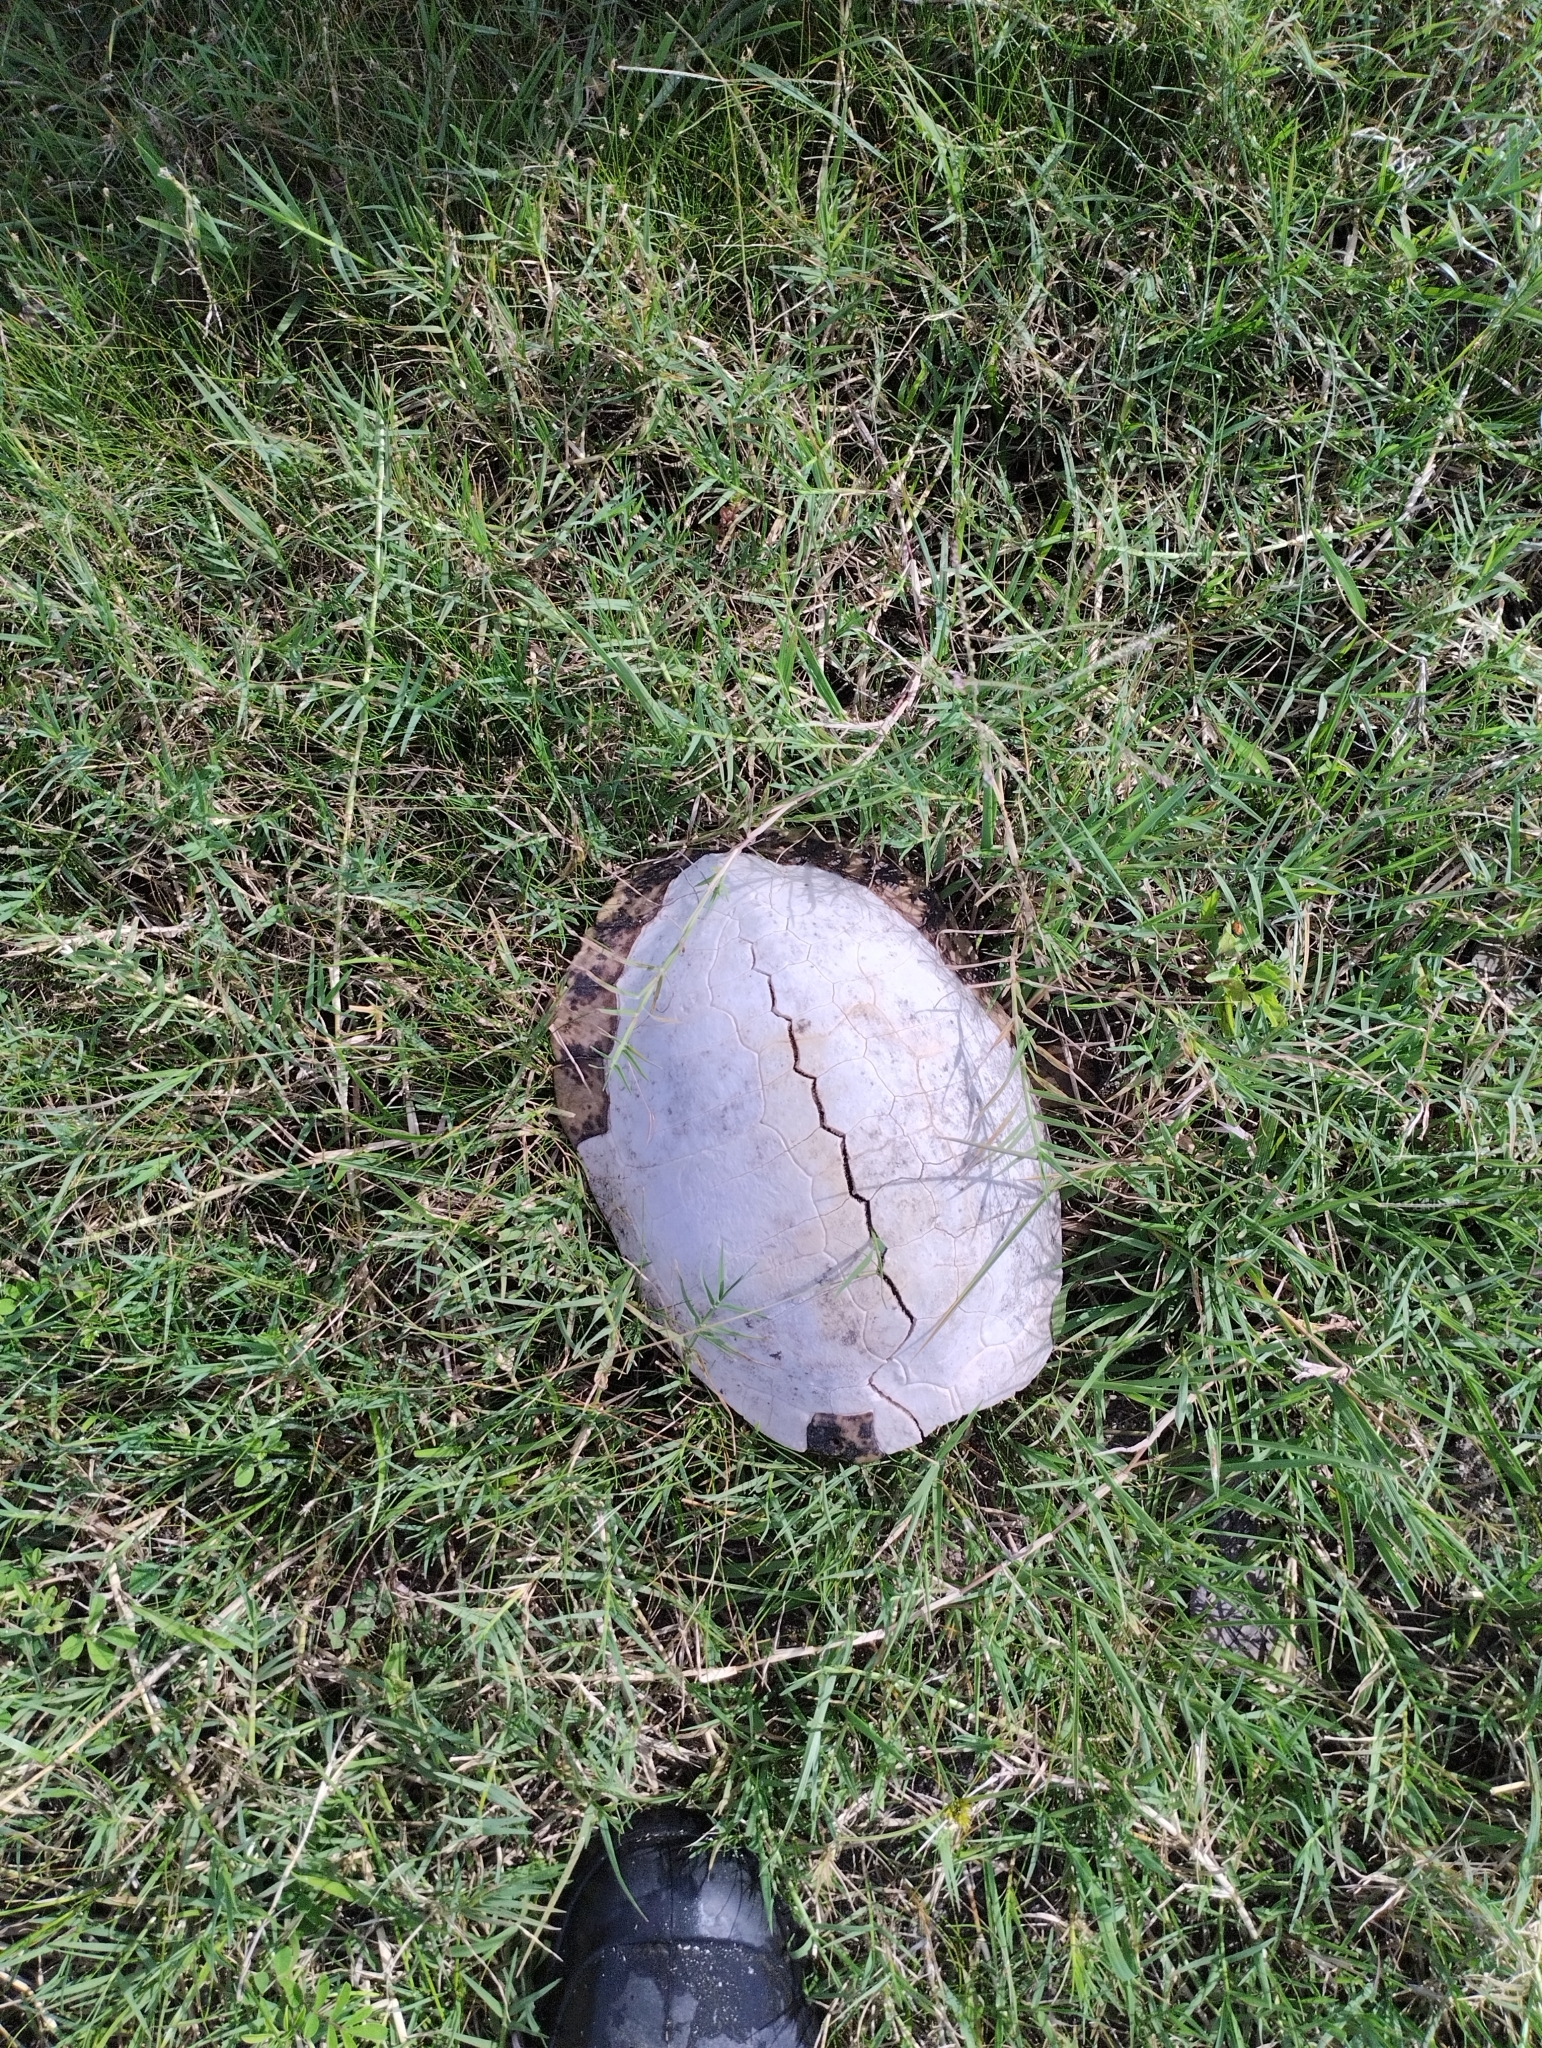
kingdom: Animalia
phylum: Chordata
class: Testudines
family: Emydidae
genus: Trachemys
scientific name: Trachemys dorbigni
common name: Black-bellied slider
